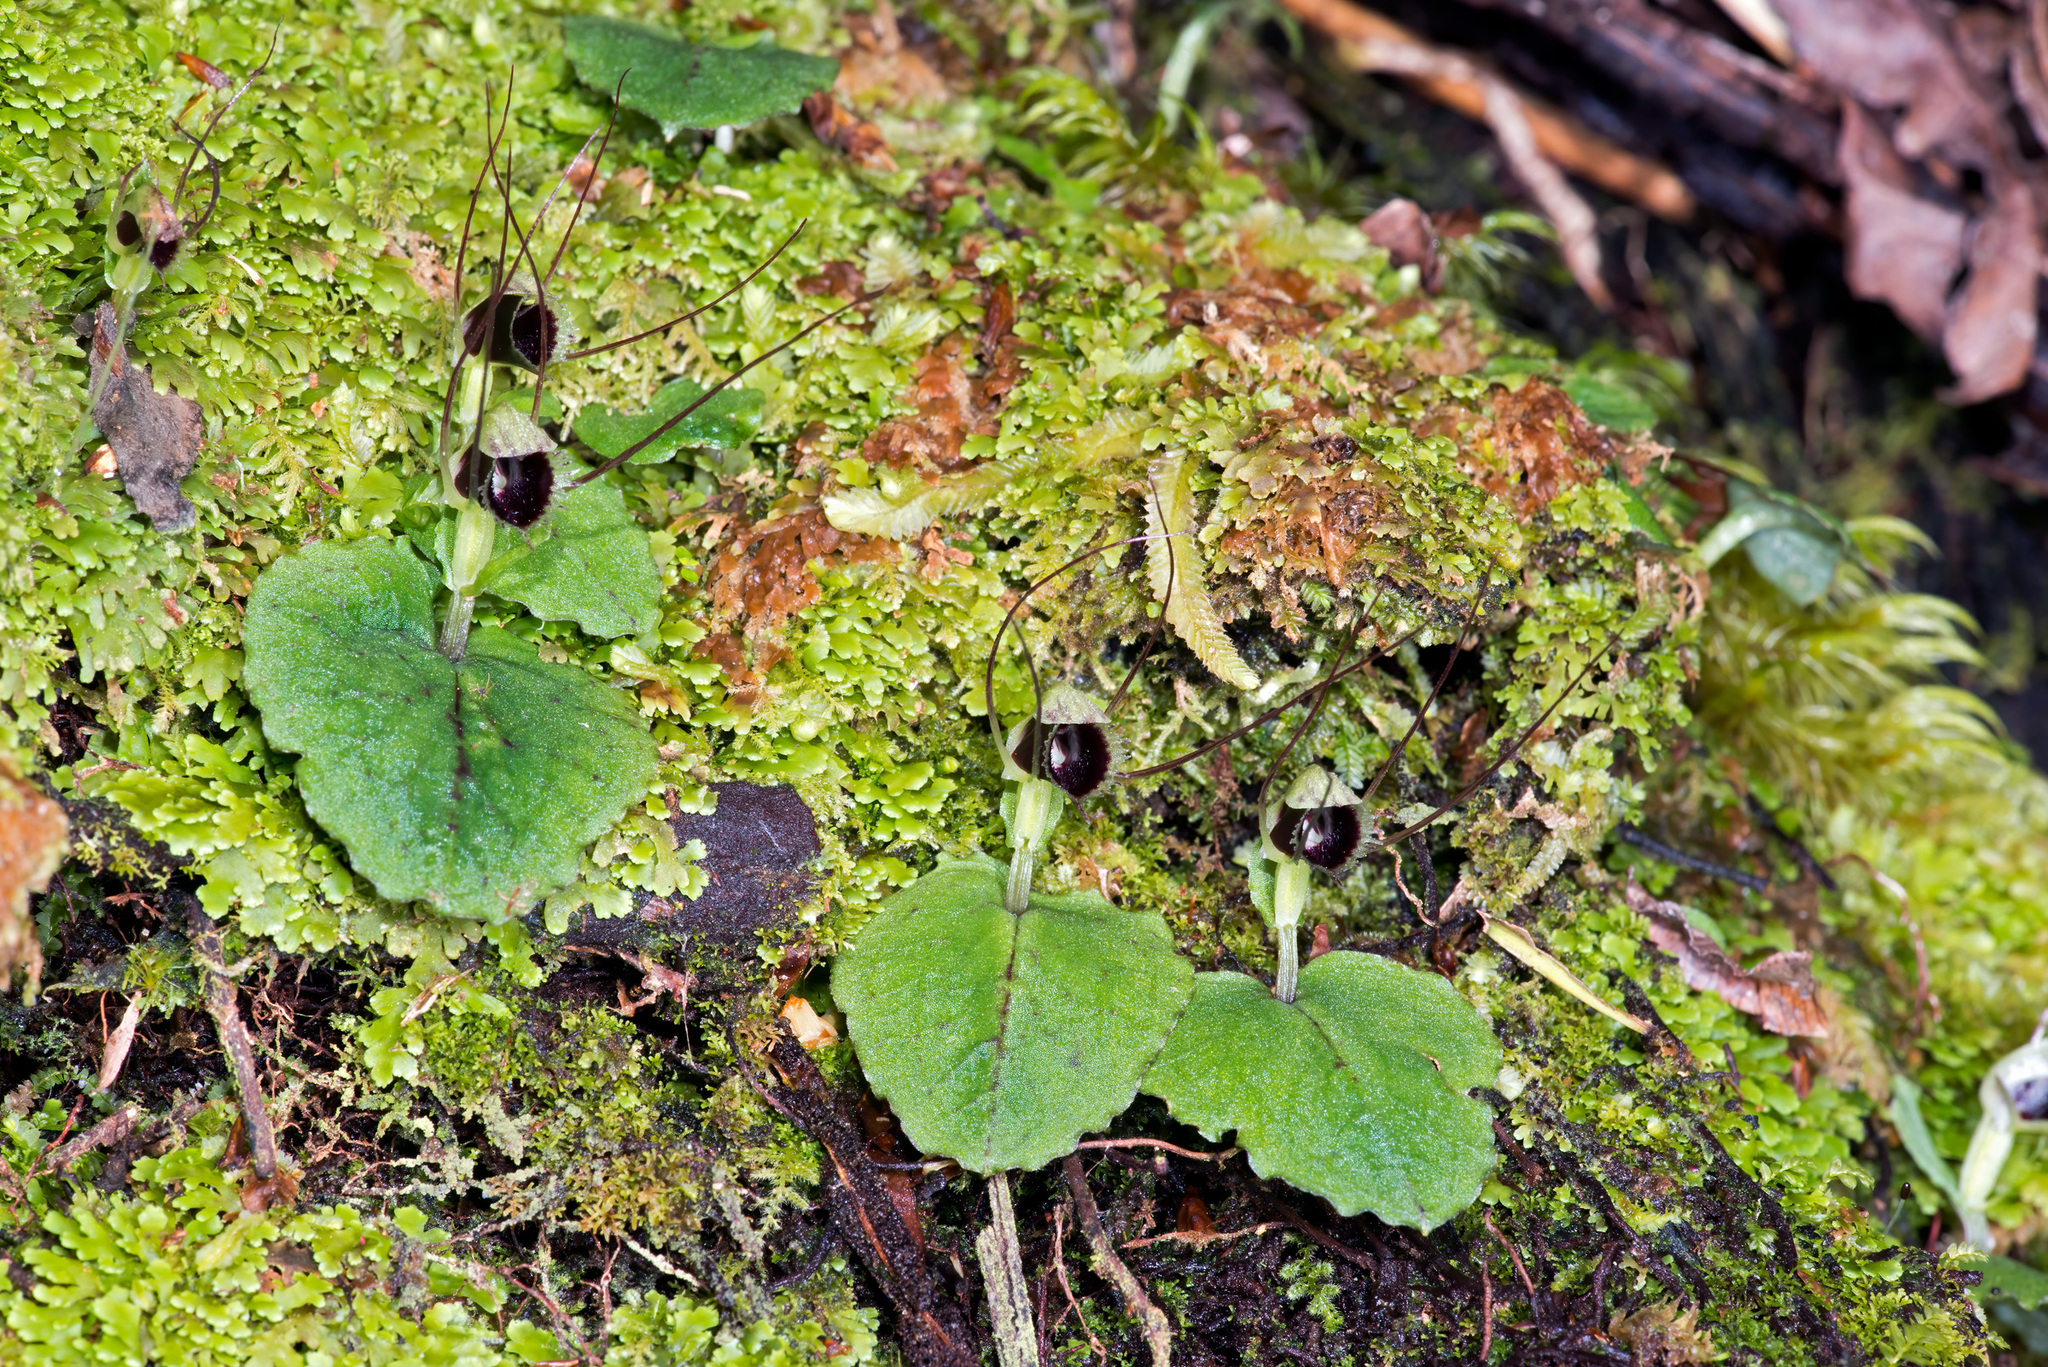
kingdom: Plantae
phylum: Tracheophyta
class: Liliopsida
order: Asparagales
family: Orchidaceae
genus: Corybas
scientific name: Corybas oblongus
